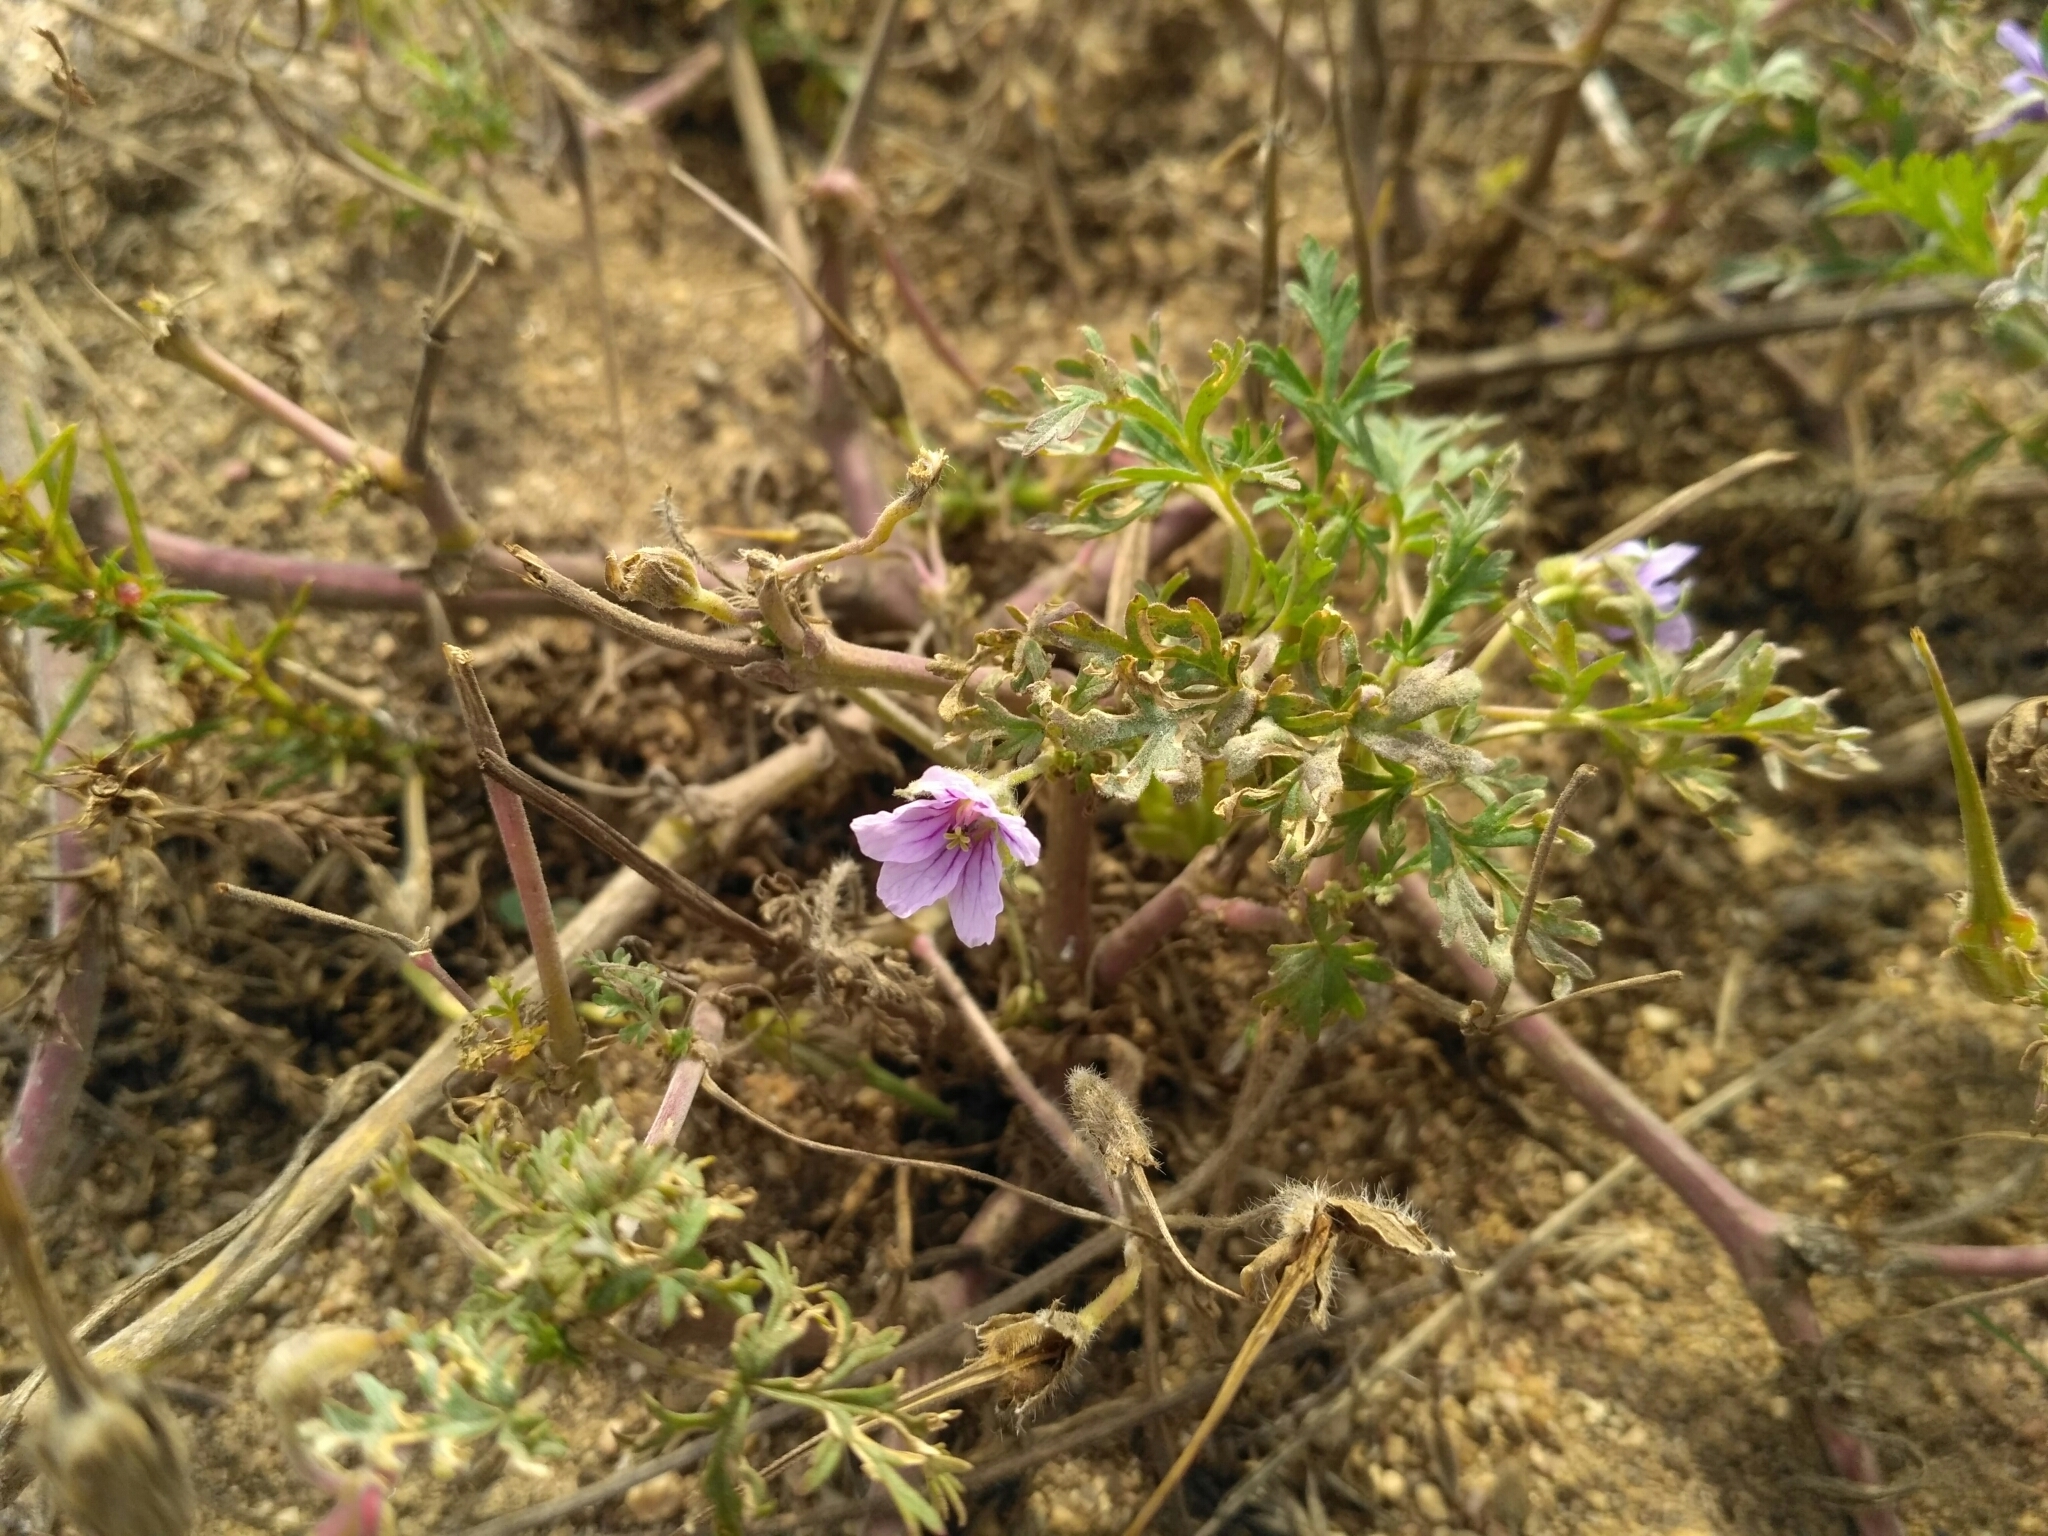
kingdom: Plantae
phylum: Tracheophyta
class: Magnoliopsida
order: Geraniales
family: Geraniaceae
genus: Erodium
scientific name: Erodium stephanianum
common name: Stephen's stork's bill
